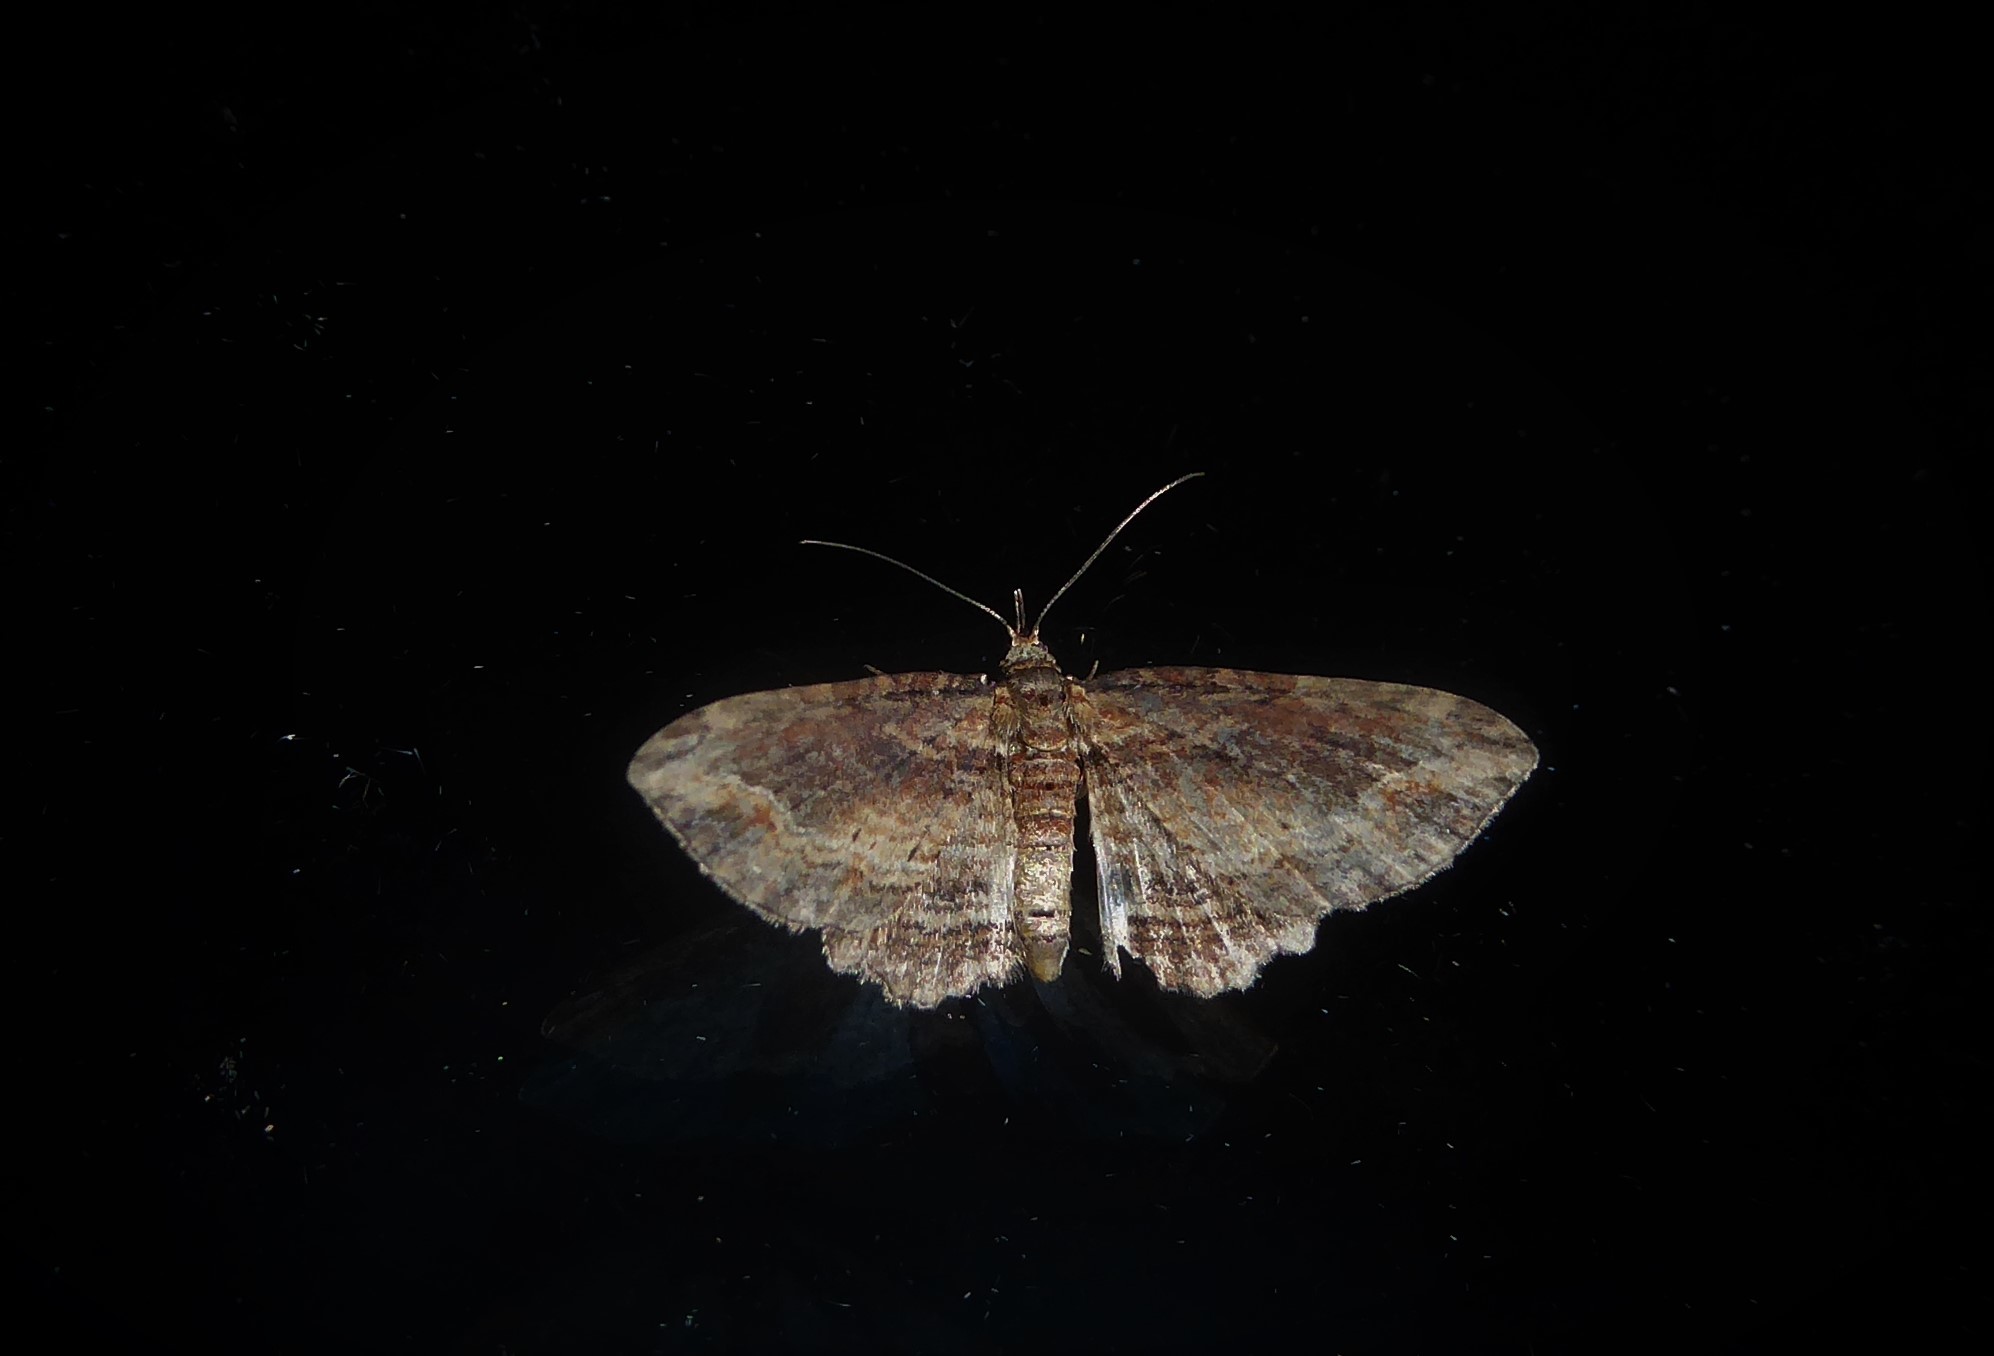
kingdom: Animalia
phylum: Arthropoda
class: Insecta
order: Lepidoptera
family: Geometridae
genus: Chloroclystis
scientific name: Chloroclystis filata
